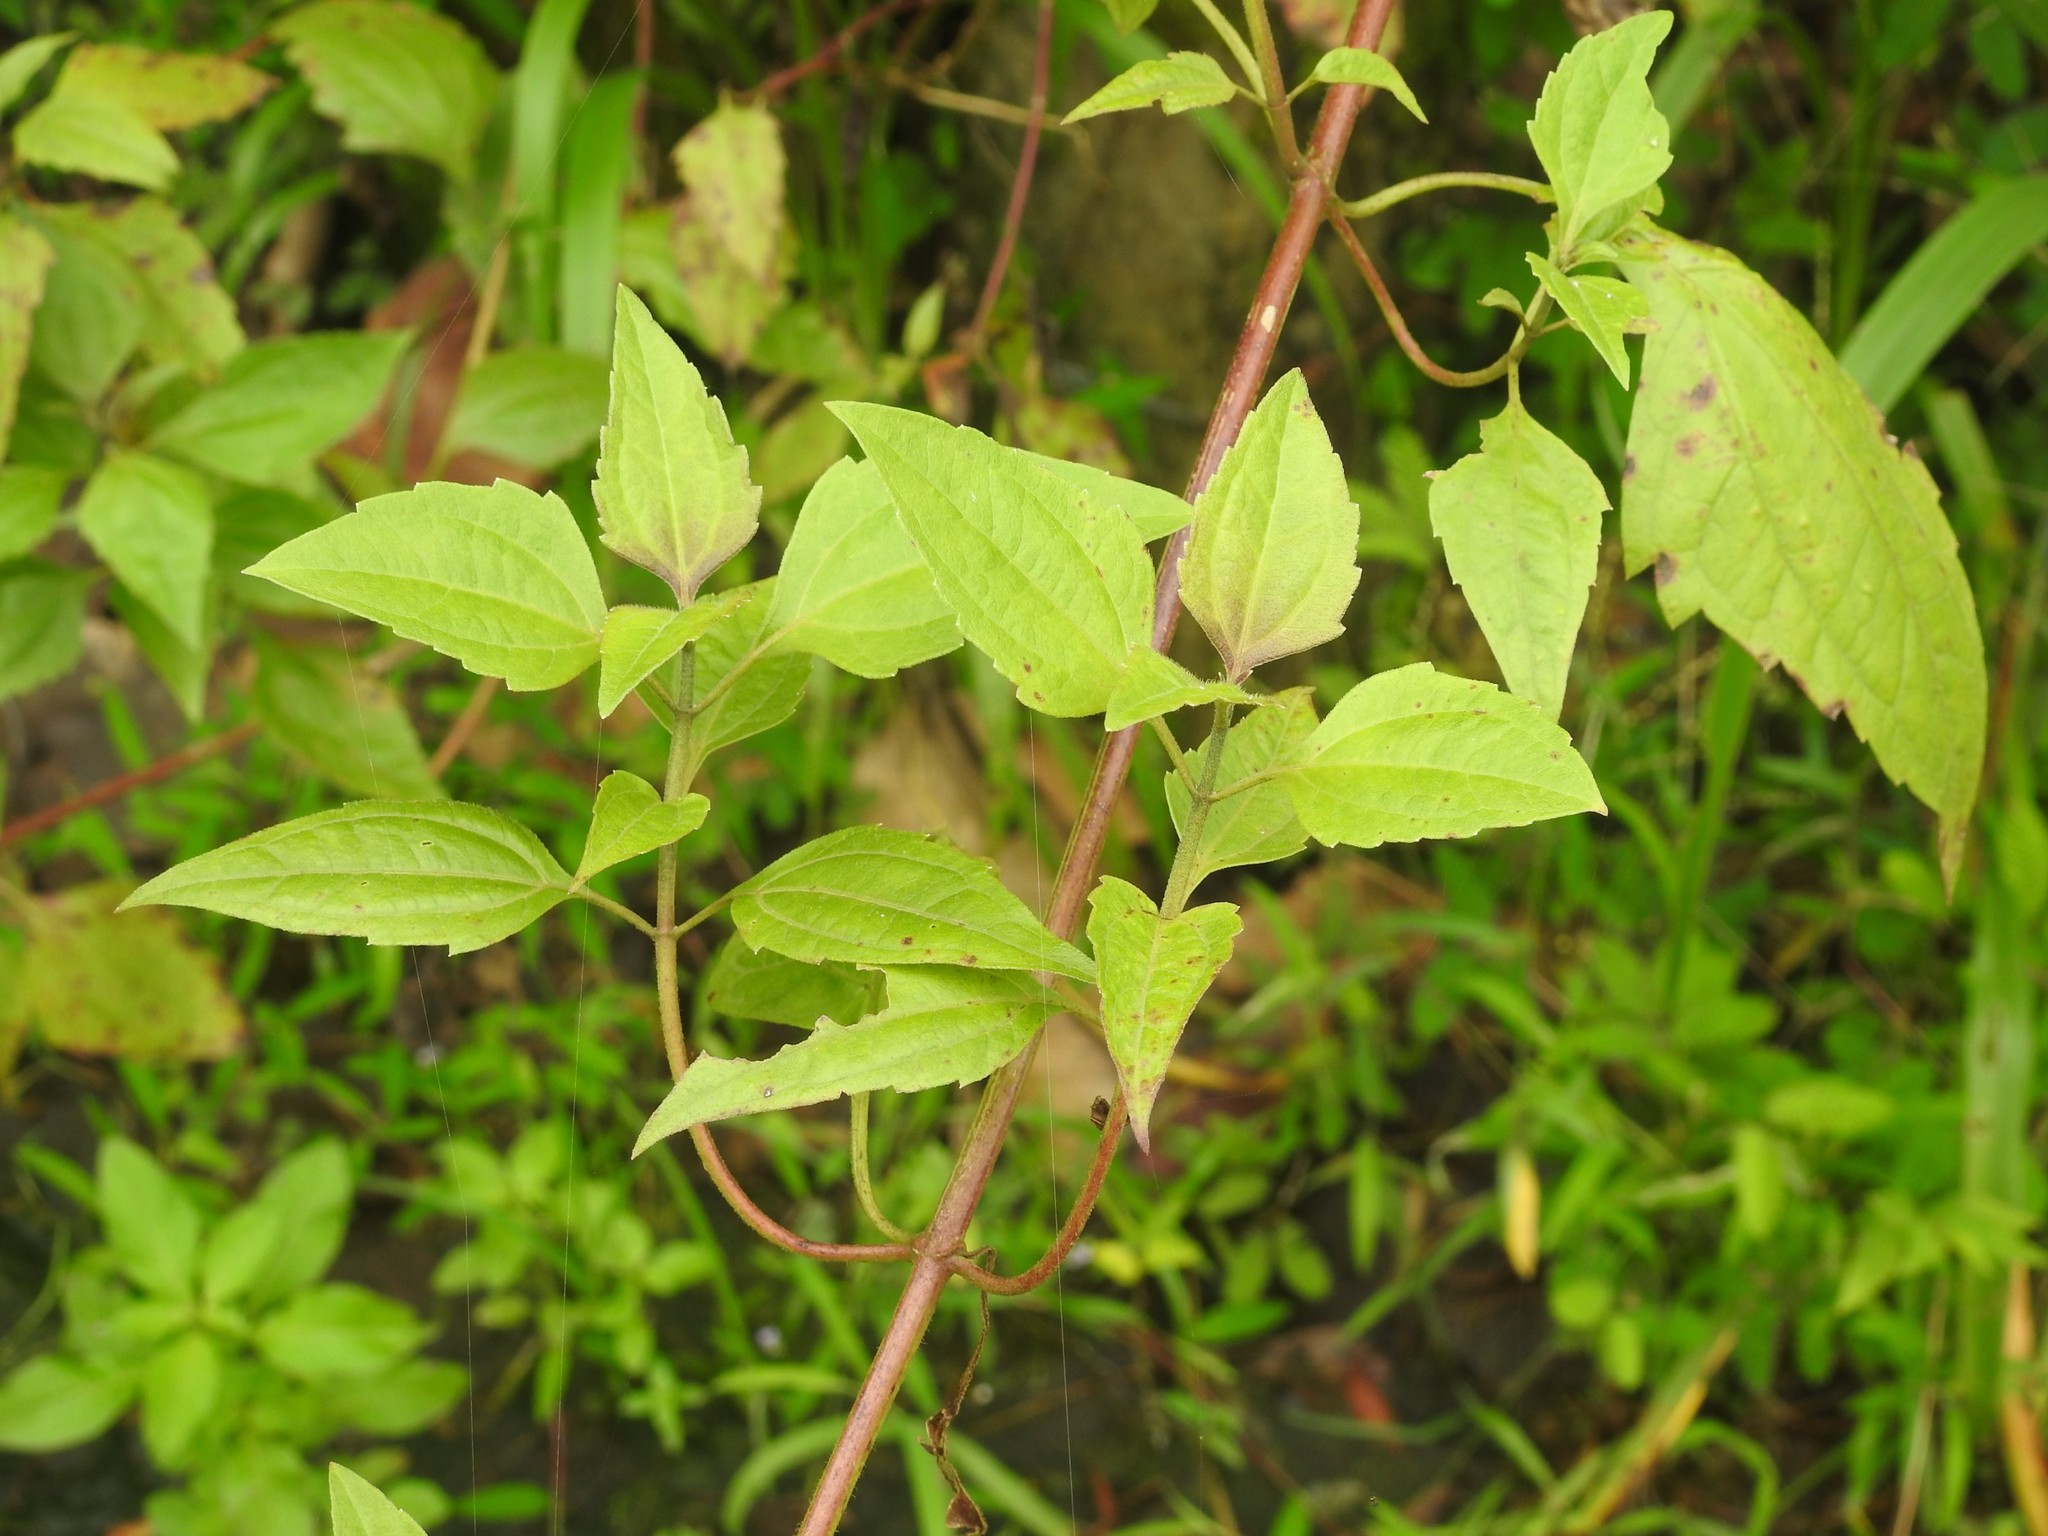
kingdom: Plantae
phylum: Tracheophyta
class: Magnoliopsida
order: Asterales
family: Asteraceae
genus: Chromolaena
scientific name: Chromolaena odorata
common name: Siamweed
